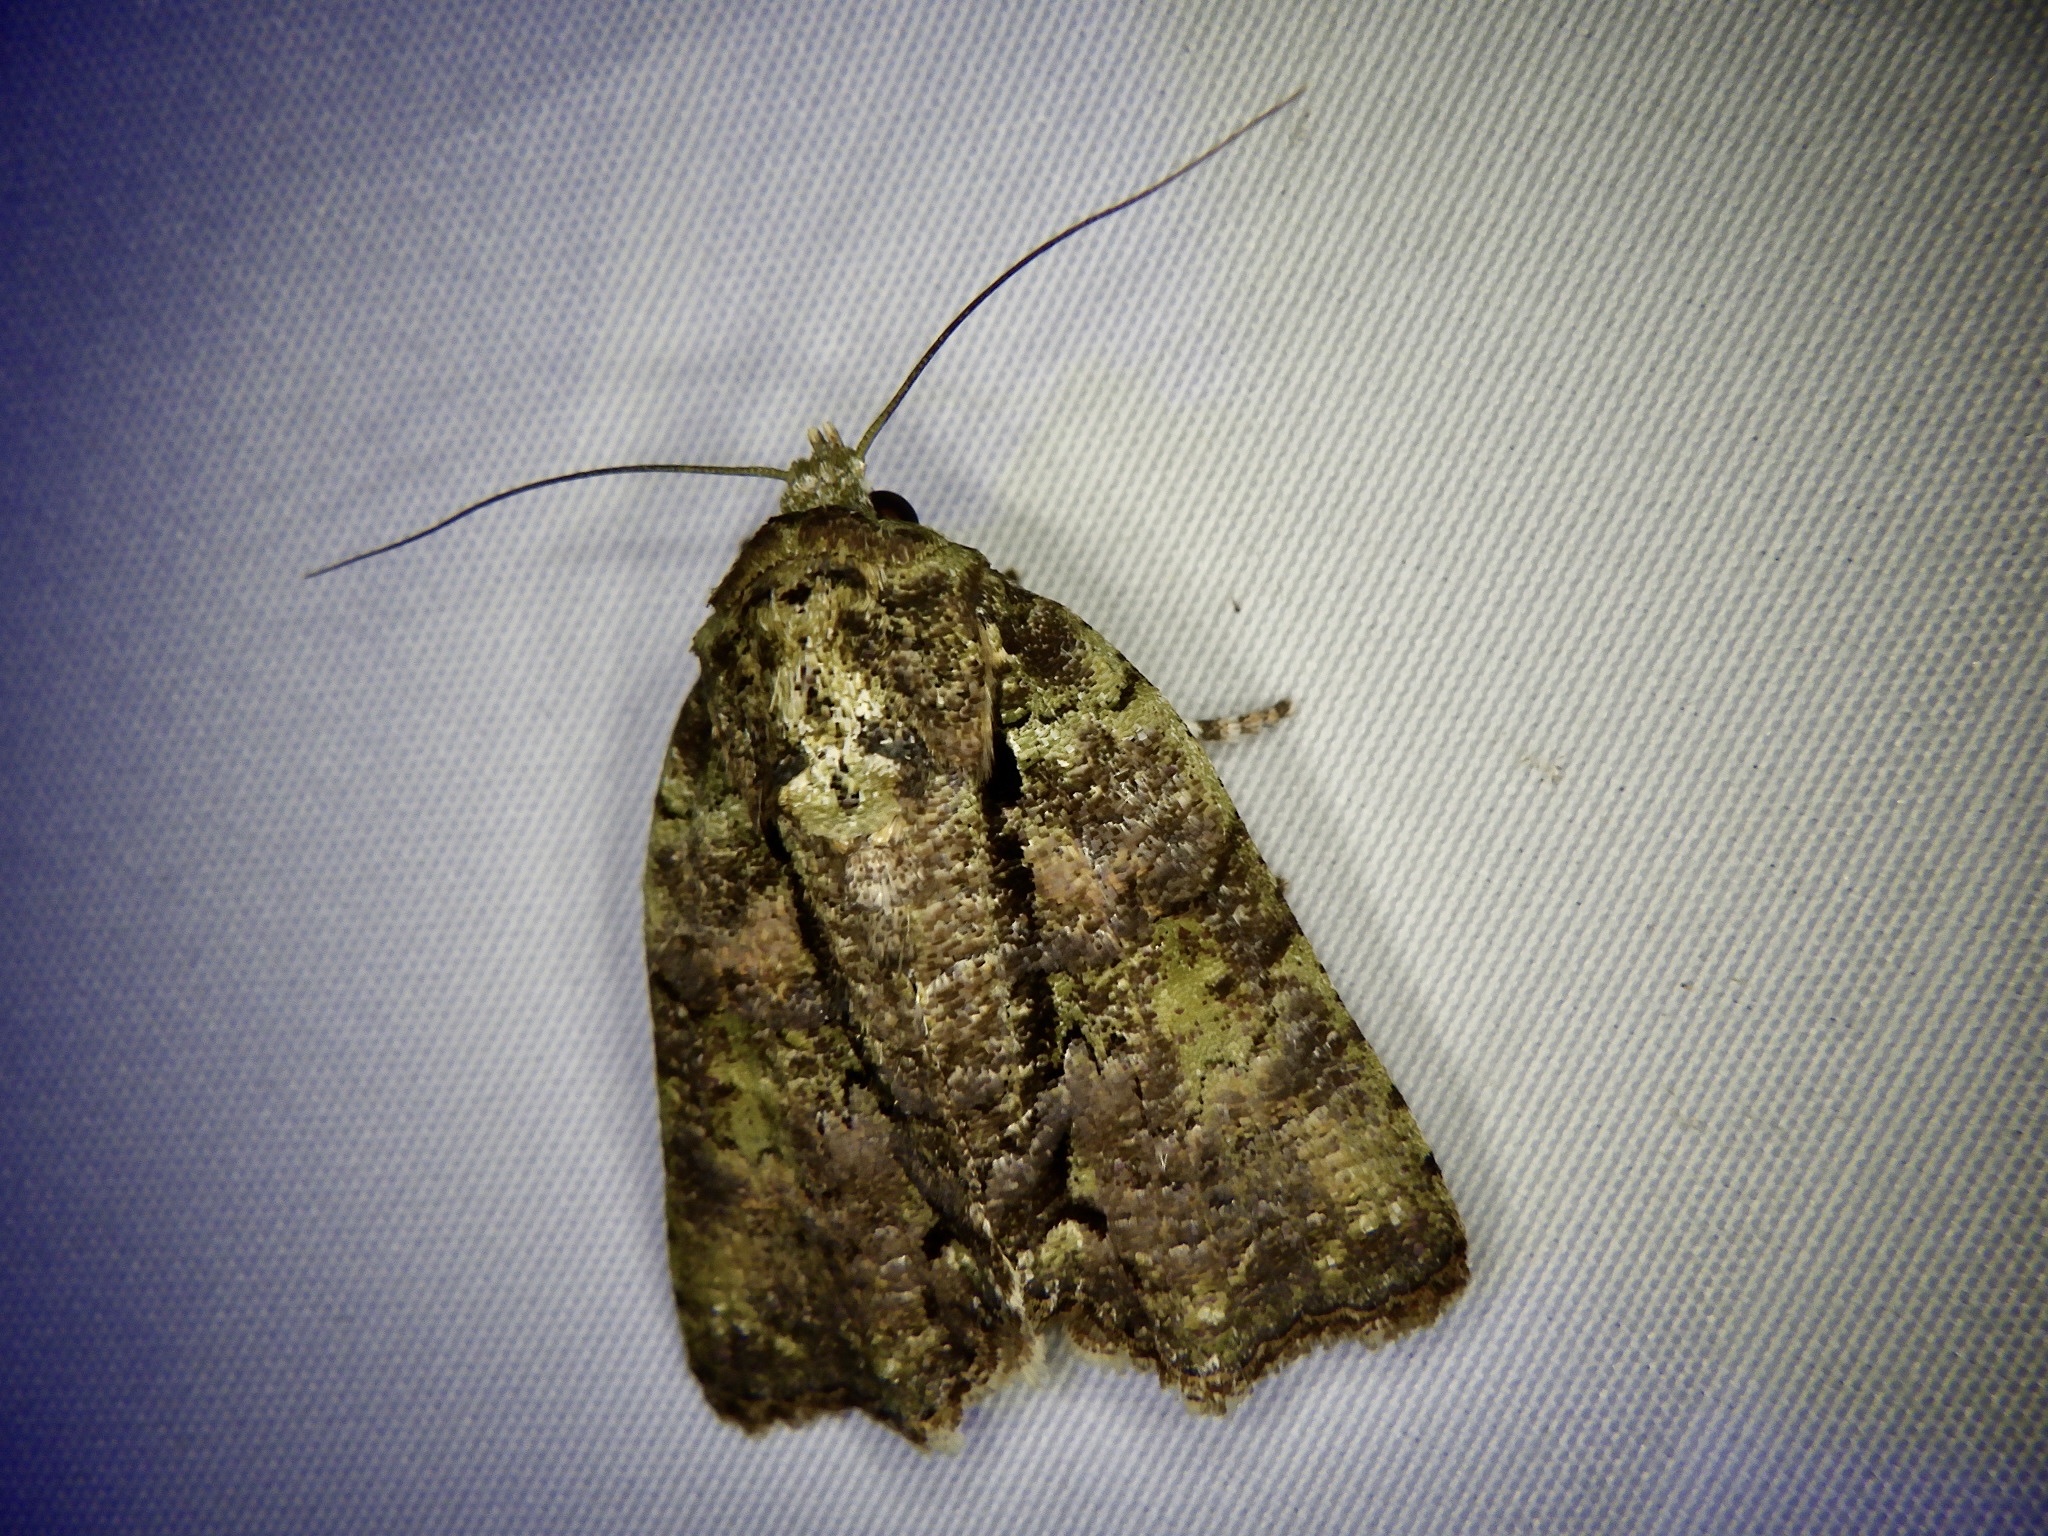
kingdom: Animalia
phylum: Arthropoda
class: Insecta
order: Lepidoptera
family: Nolidae
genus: Blenina
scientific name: Blenina senex
